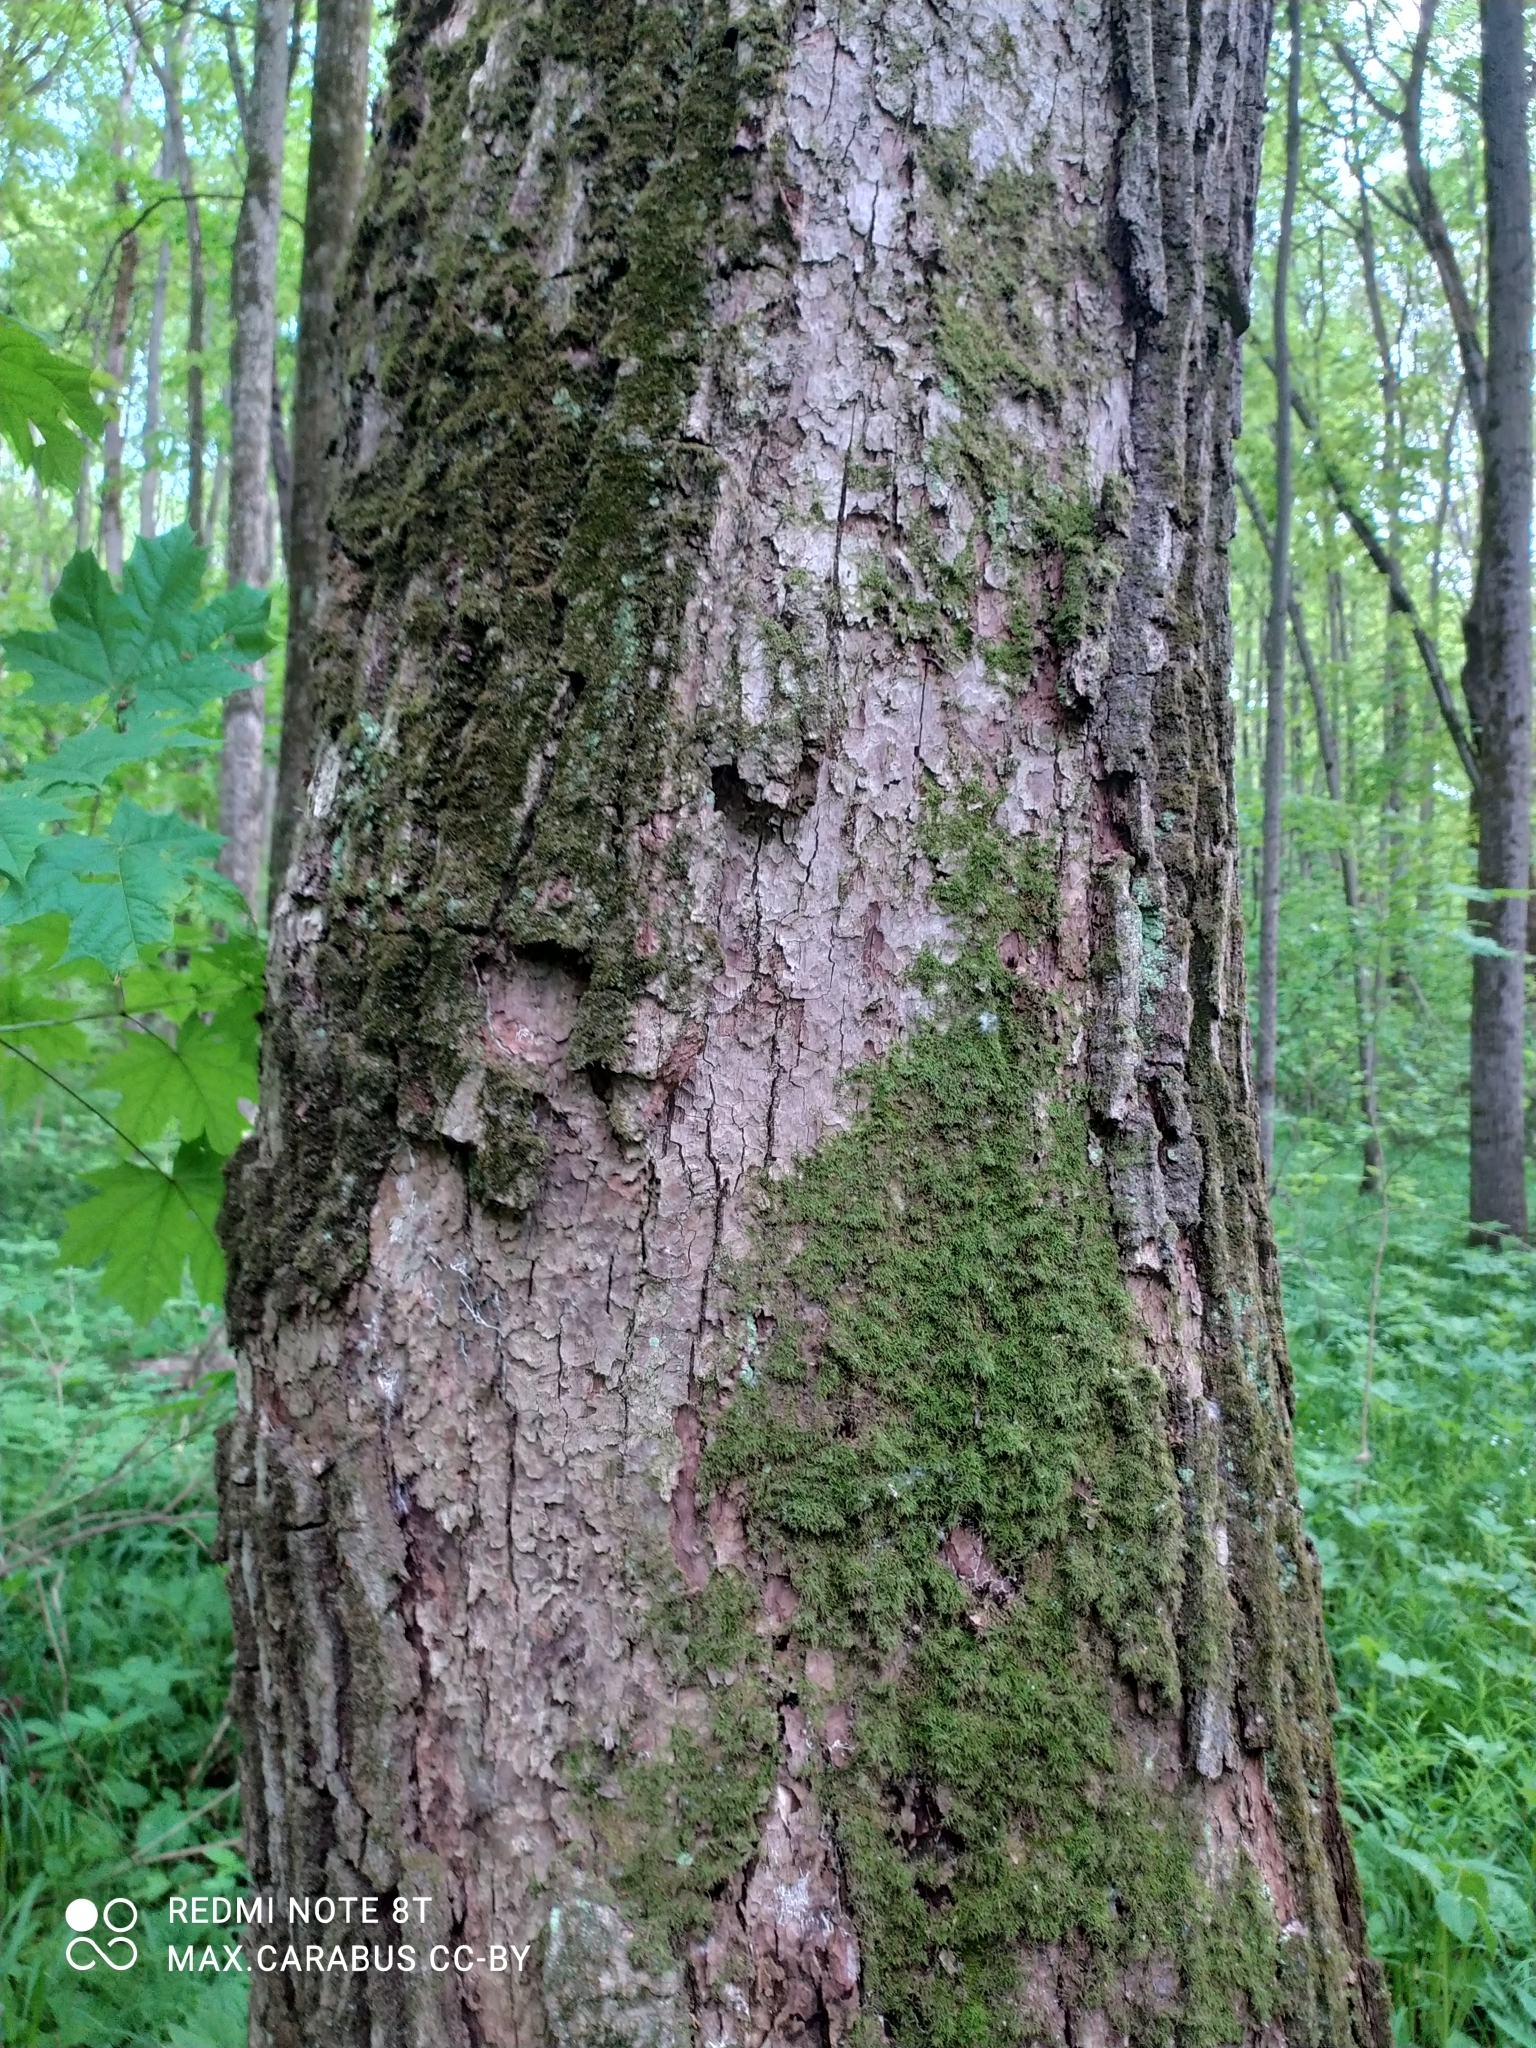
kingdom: Plantae
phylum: Tracheophyta
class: Magnoliopsida
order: Fagales
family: Fagaceae
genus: Quercus
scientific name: Quercus robur
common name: Pedunculate oak
